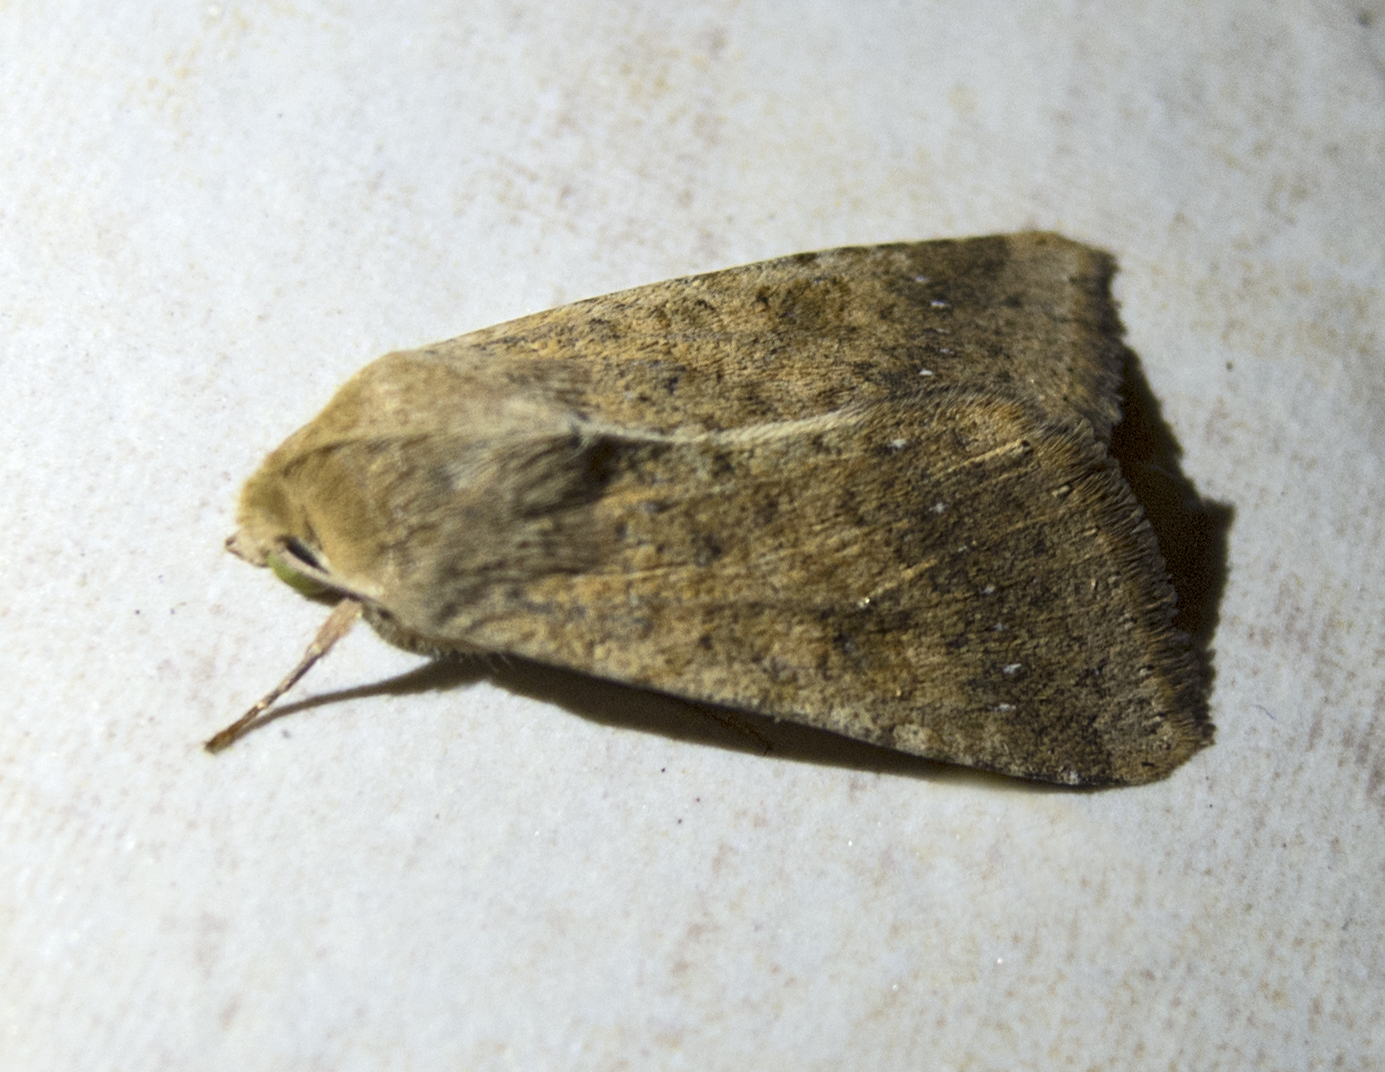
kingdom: Animalia
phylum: Arthropoda
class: Insecta
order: Lepidoptera
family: Noctuidae
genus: Helicoverpa
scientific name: Helicoverpa armigera
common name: Cotton bollworm
